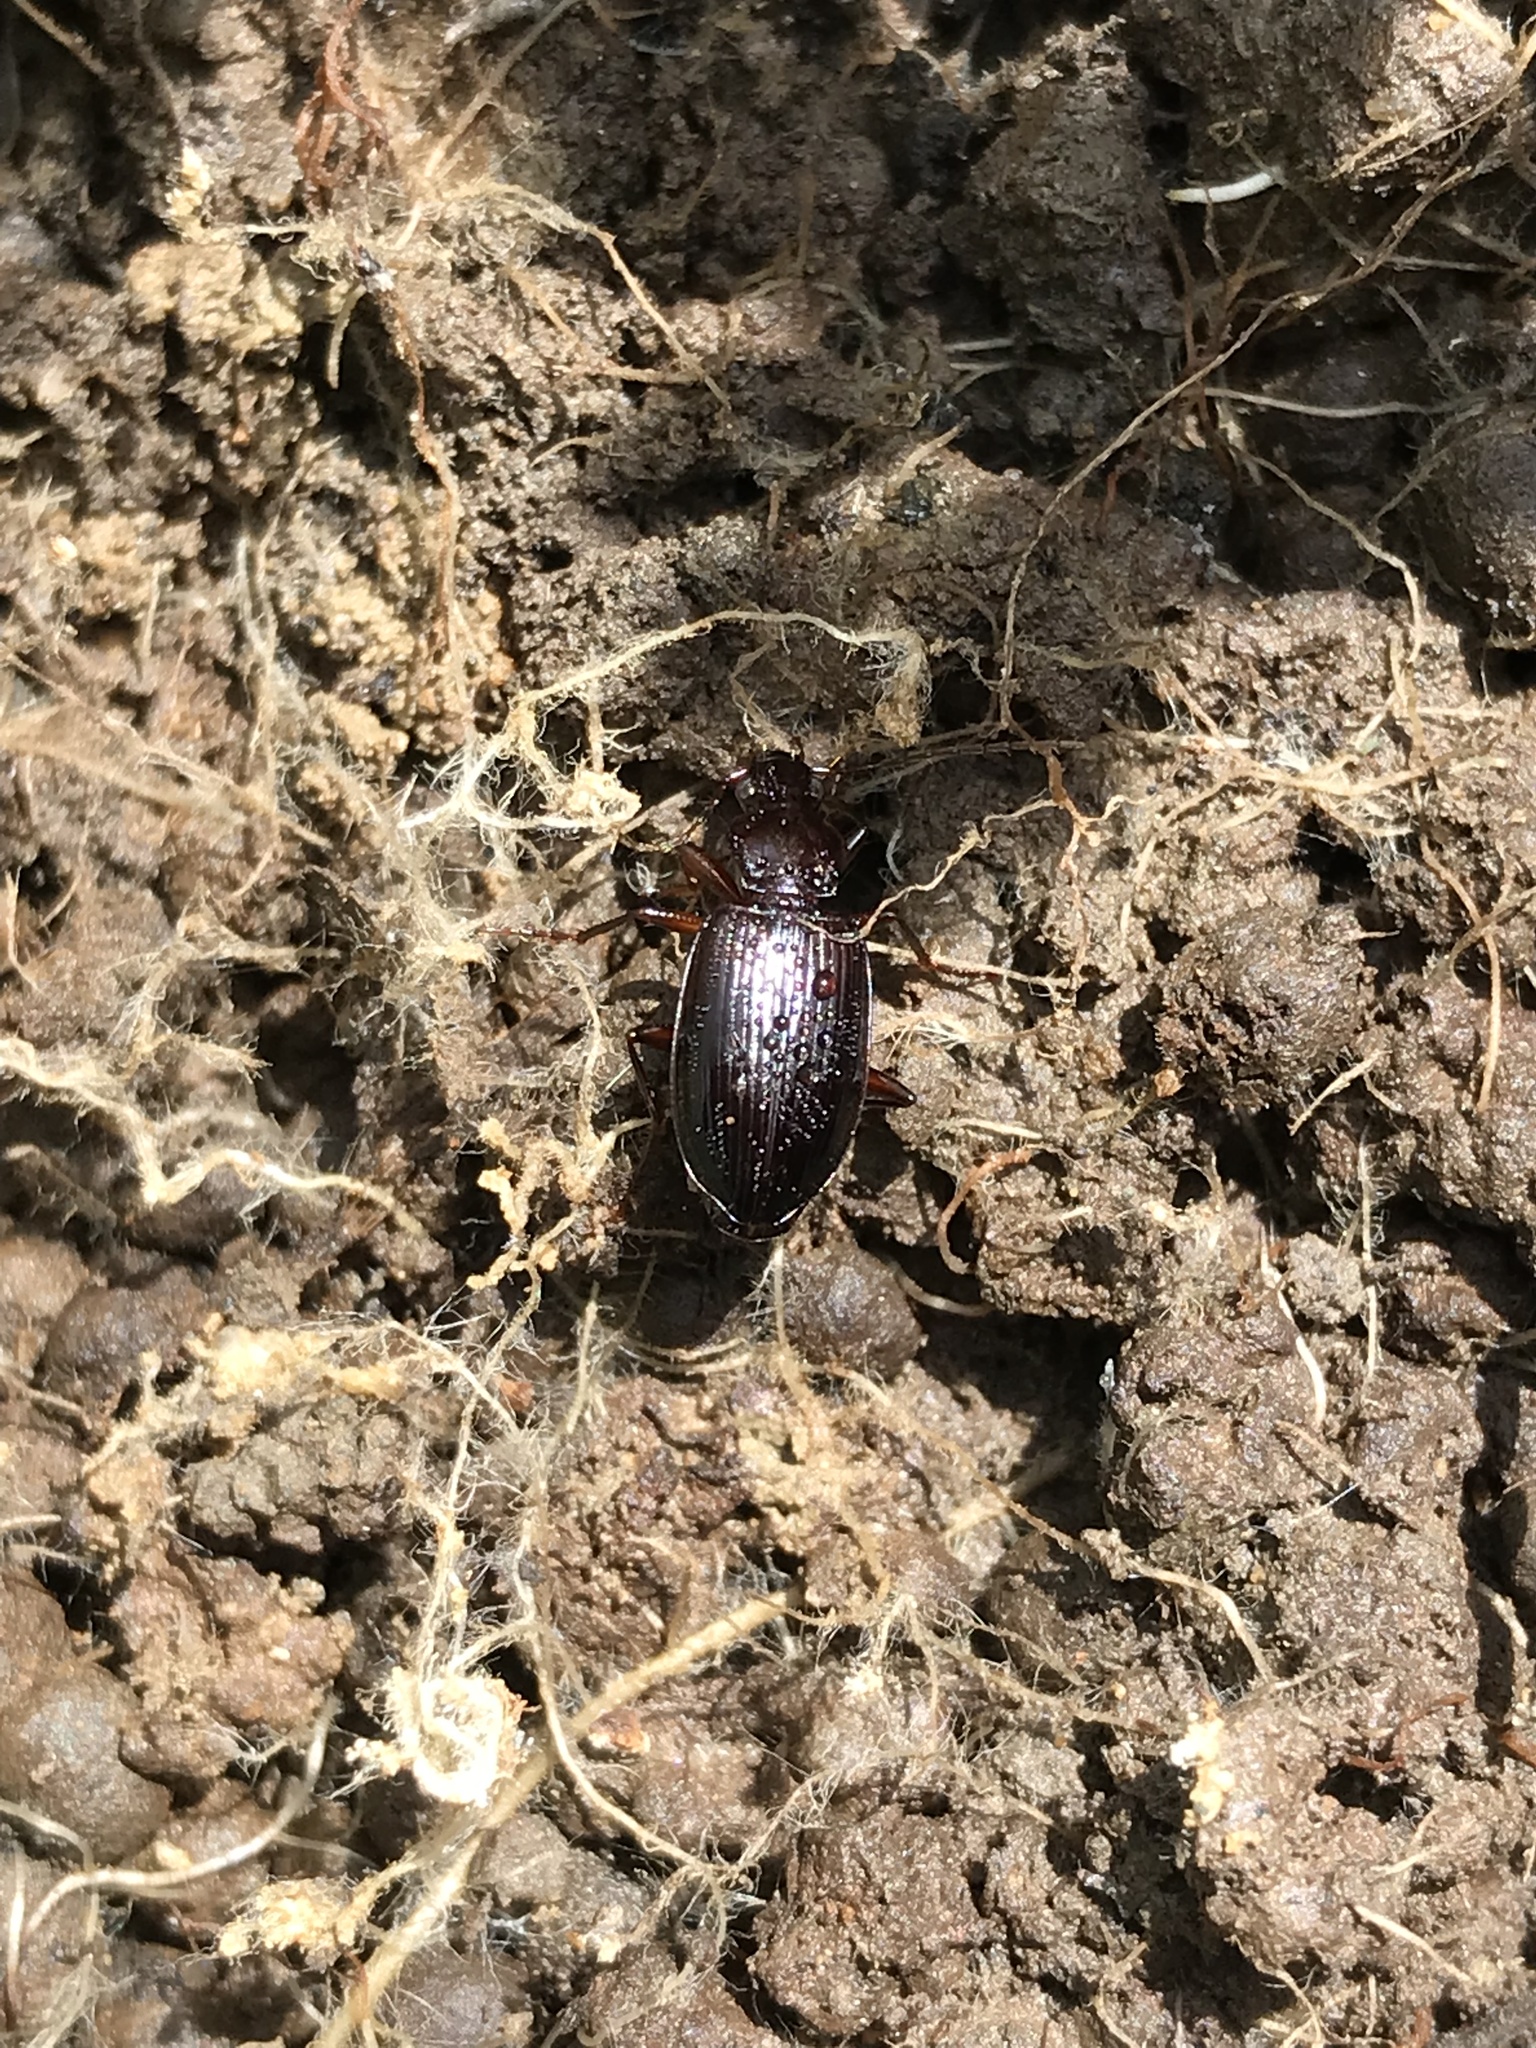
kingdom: Animalia
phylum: Arthropoda
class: Insecta
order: Coleoptera
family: Carabidae
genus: Platynus
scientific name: Platynus brunneomarginatus
